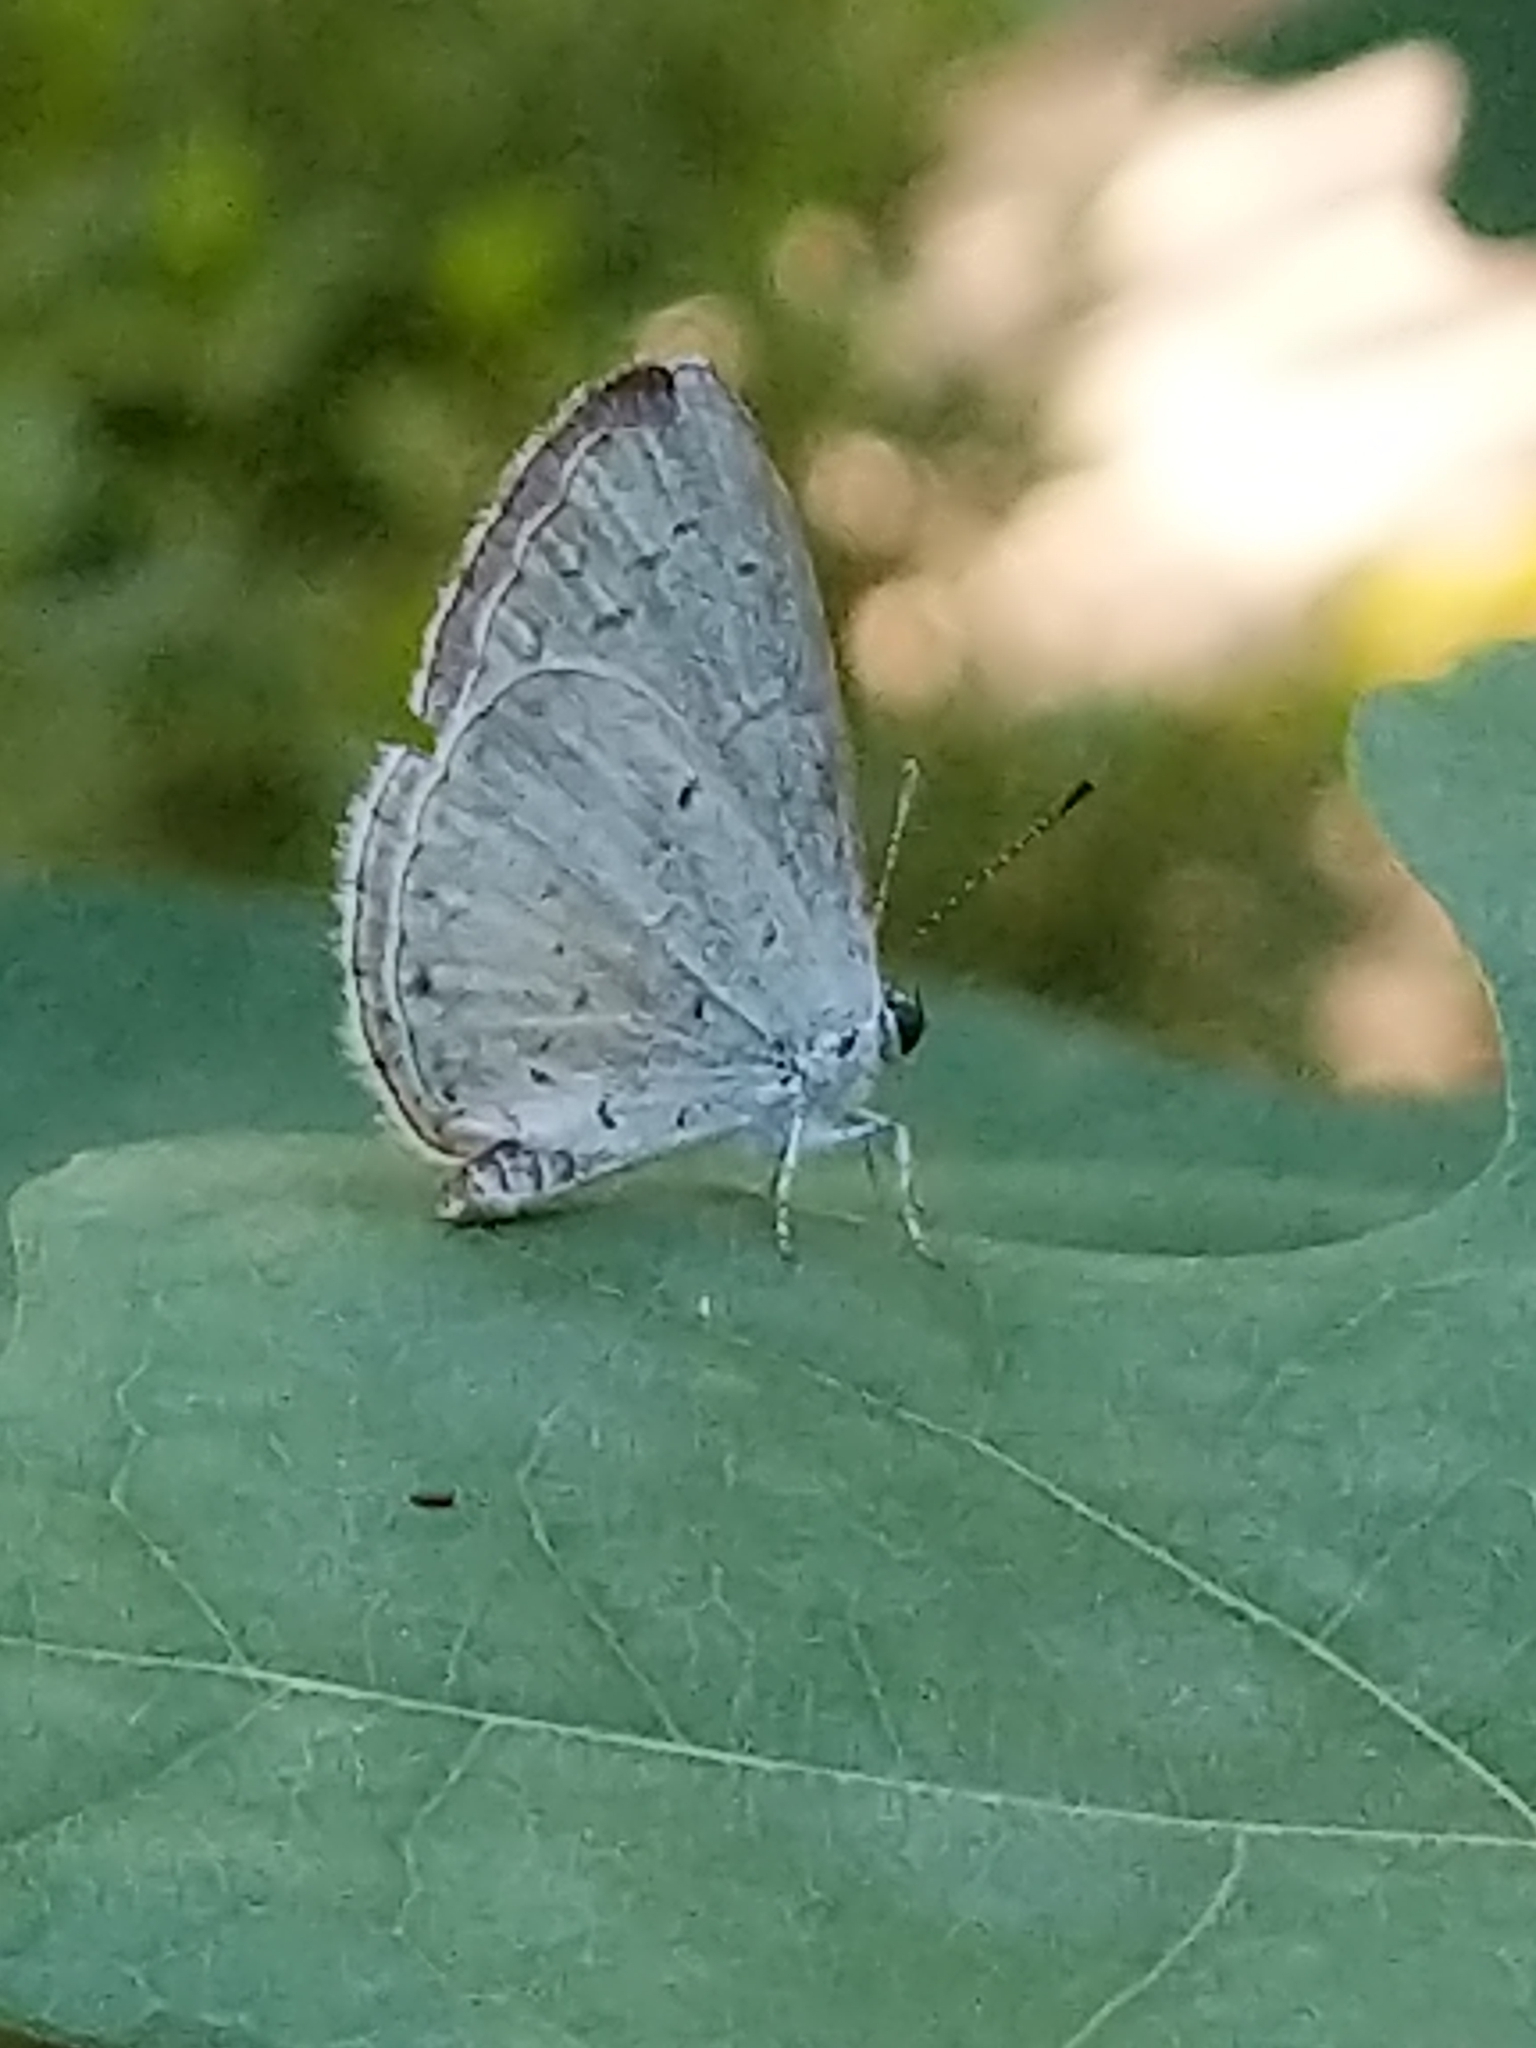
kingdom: Animalia
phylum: Arthropoda
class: Insecta
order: Lepidoptera
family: Lycaenidae
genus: Cyaniris
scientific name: Cyaniris neglecta
